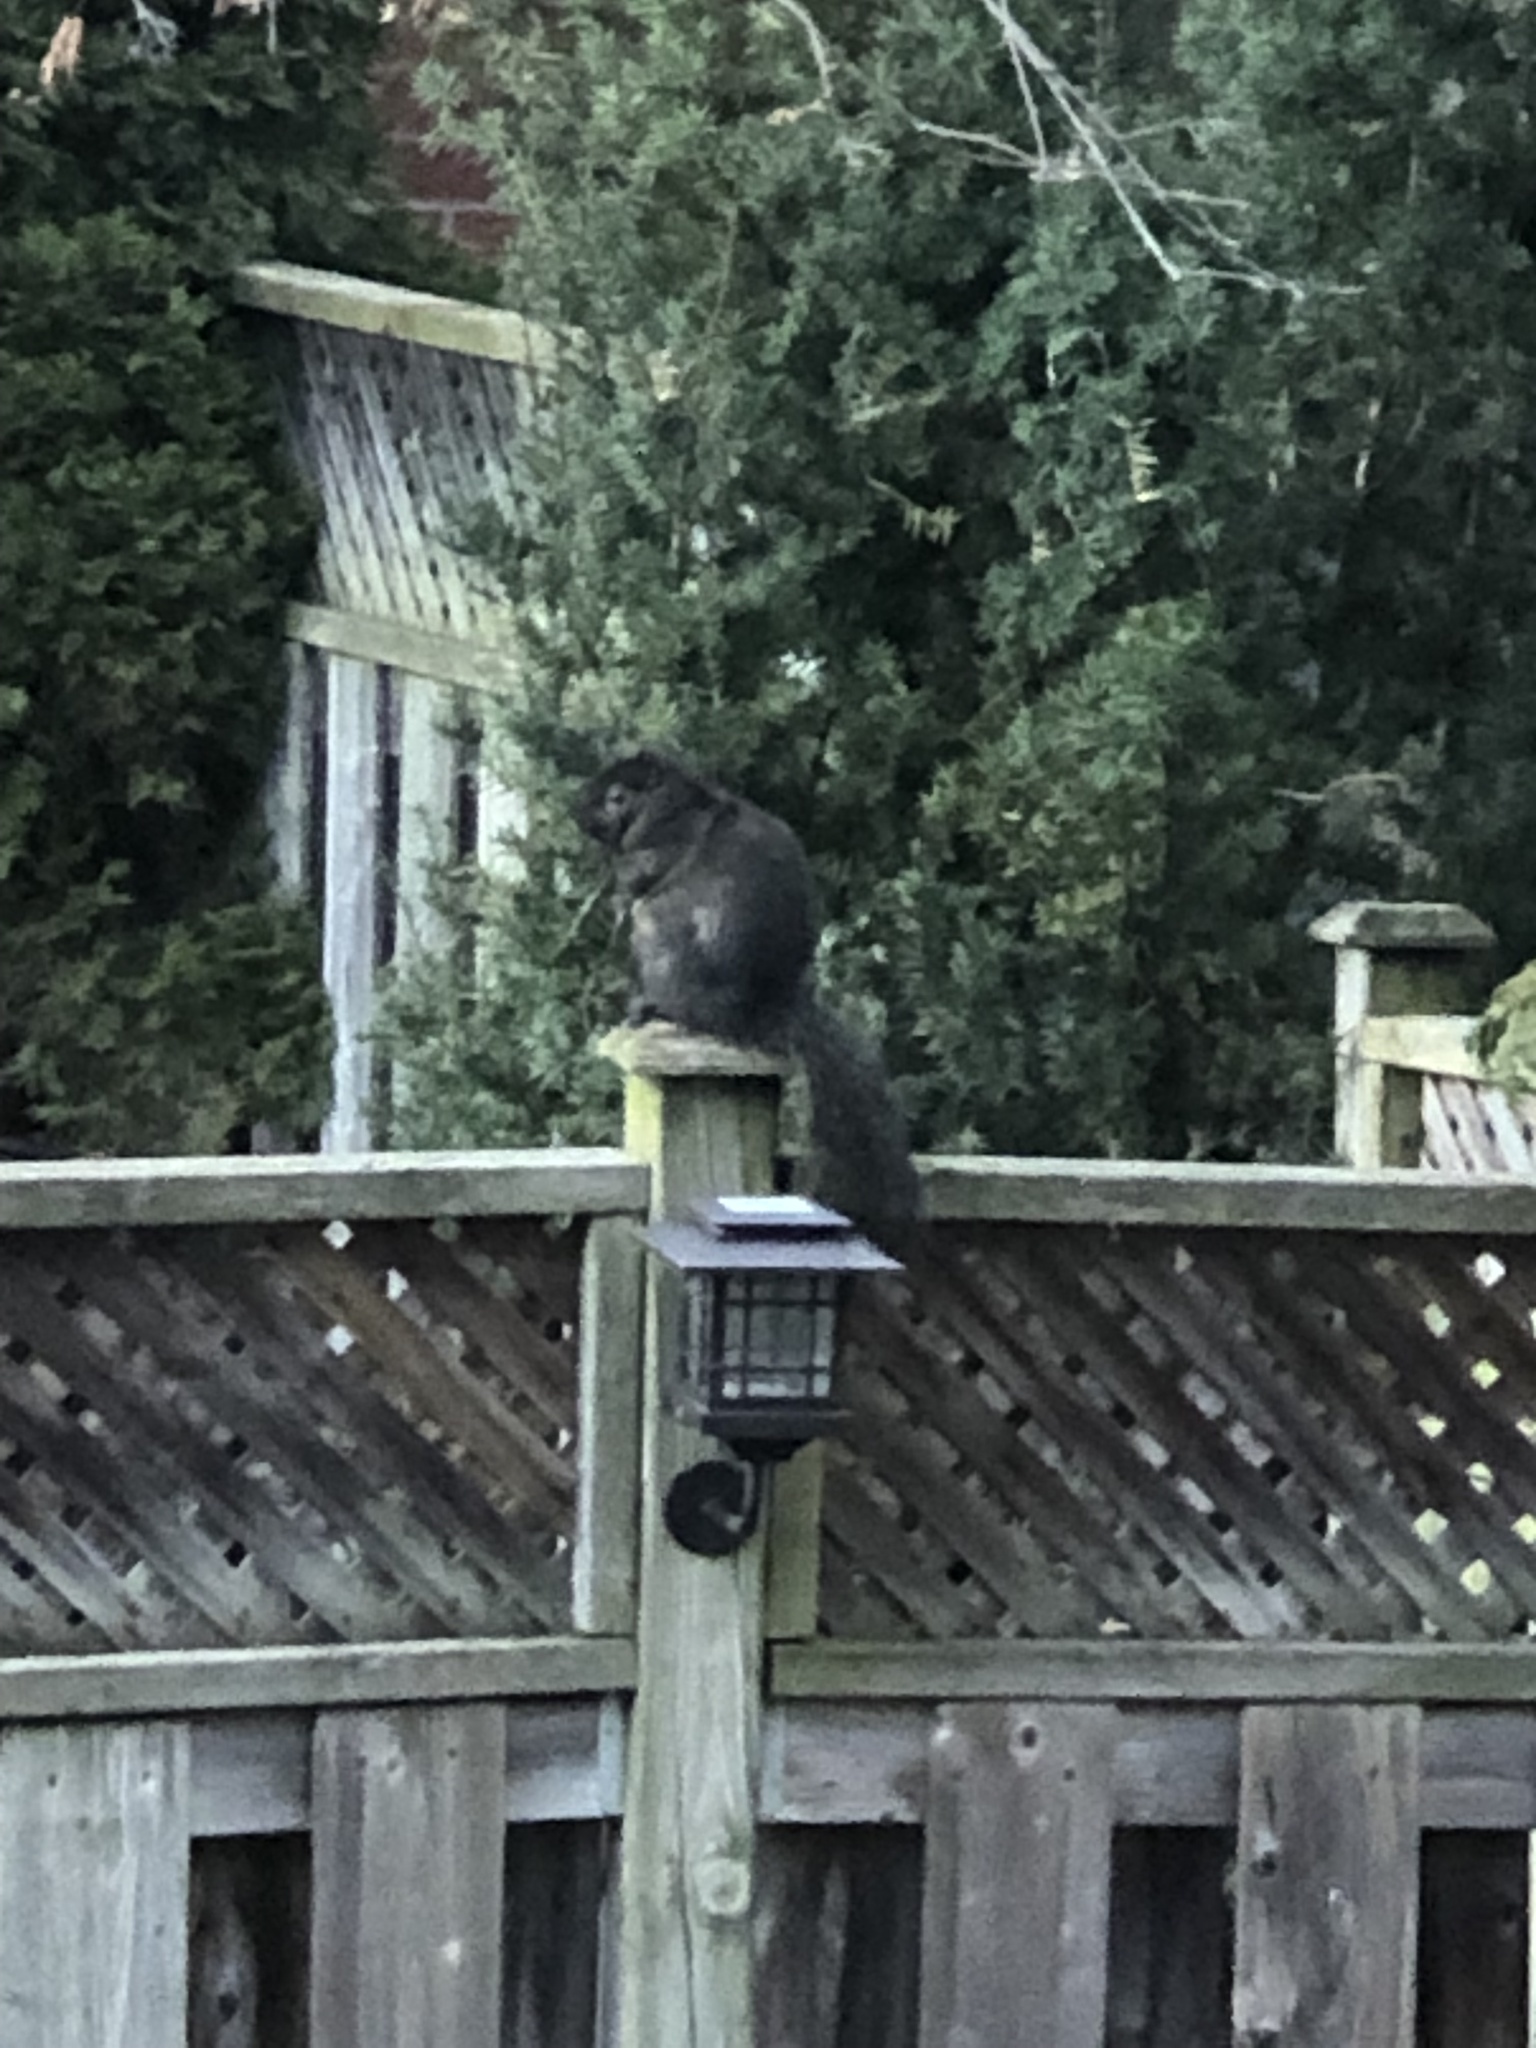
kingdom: Animalia
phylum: Chordata
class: Mammalia
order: Rodentia
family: Sciuridae
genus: Sciurus
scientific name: Sciurus carolinensis
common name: Eastern gray squirrel
